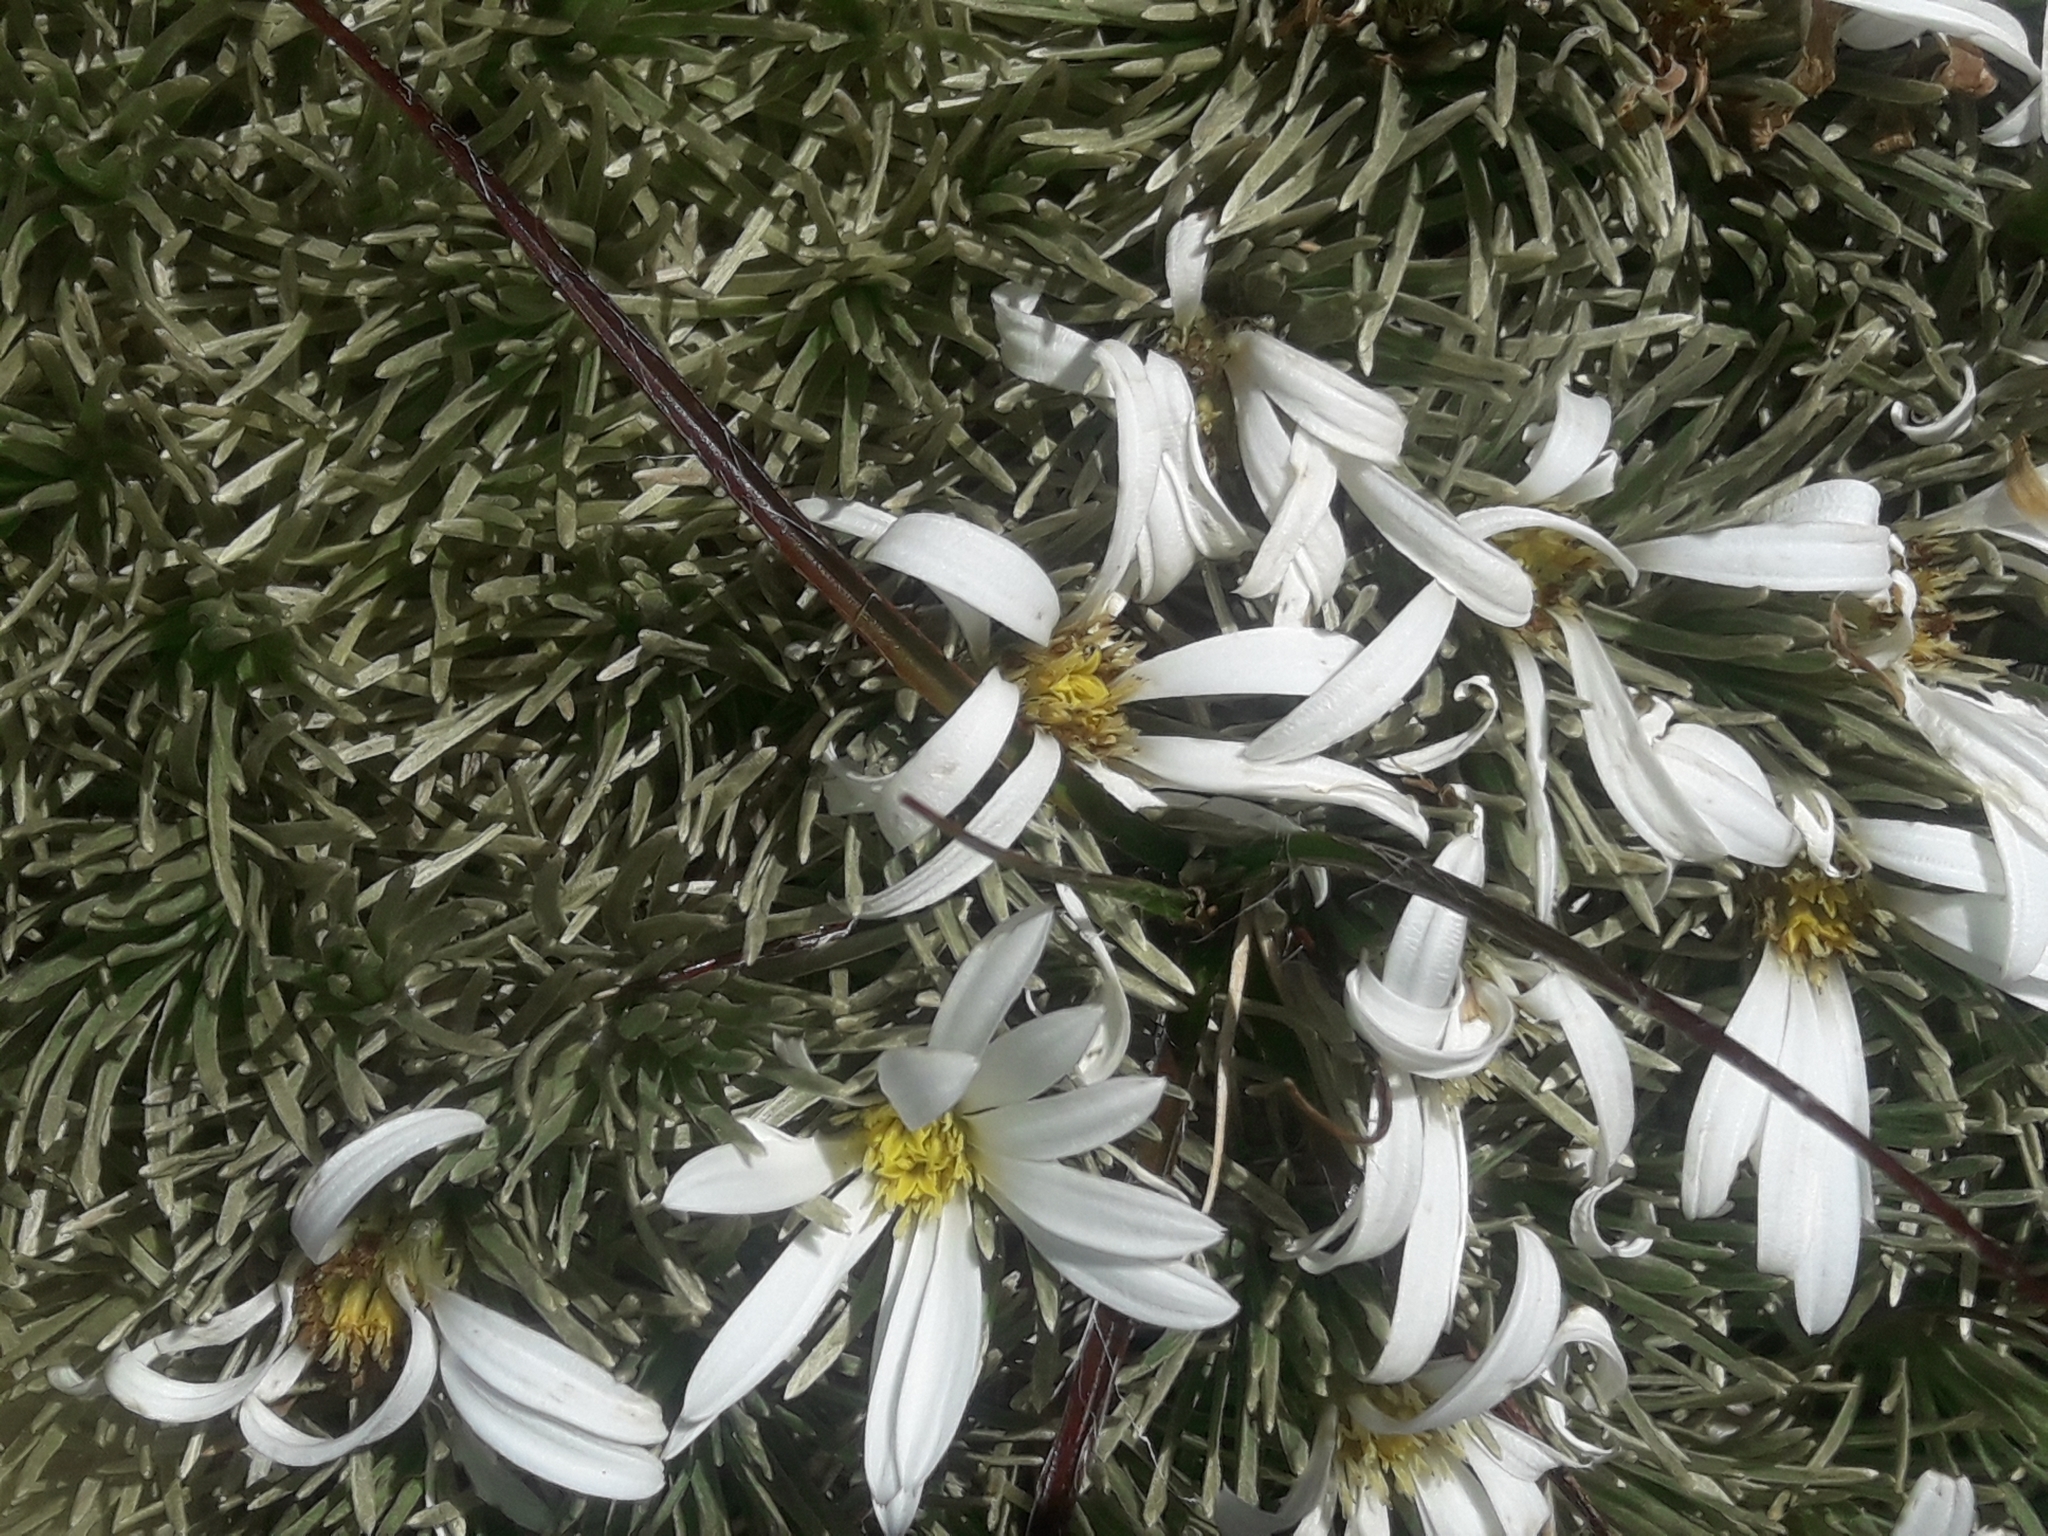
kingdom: Plantae
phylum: Tracheophyta
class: Magnoliopsida
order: Asterales
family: Asteraceae
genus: Celmisia
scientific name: Celmisia sessiliflora
